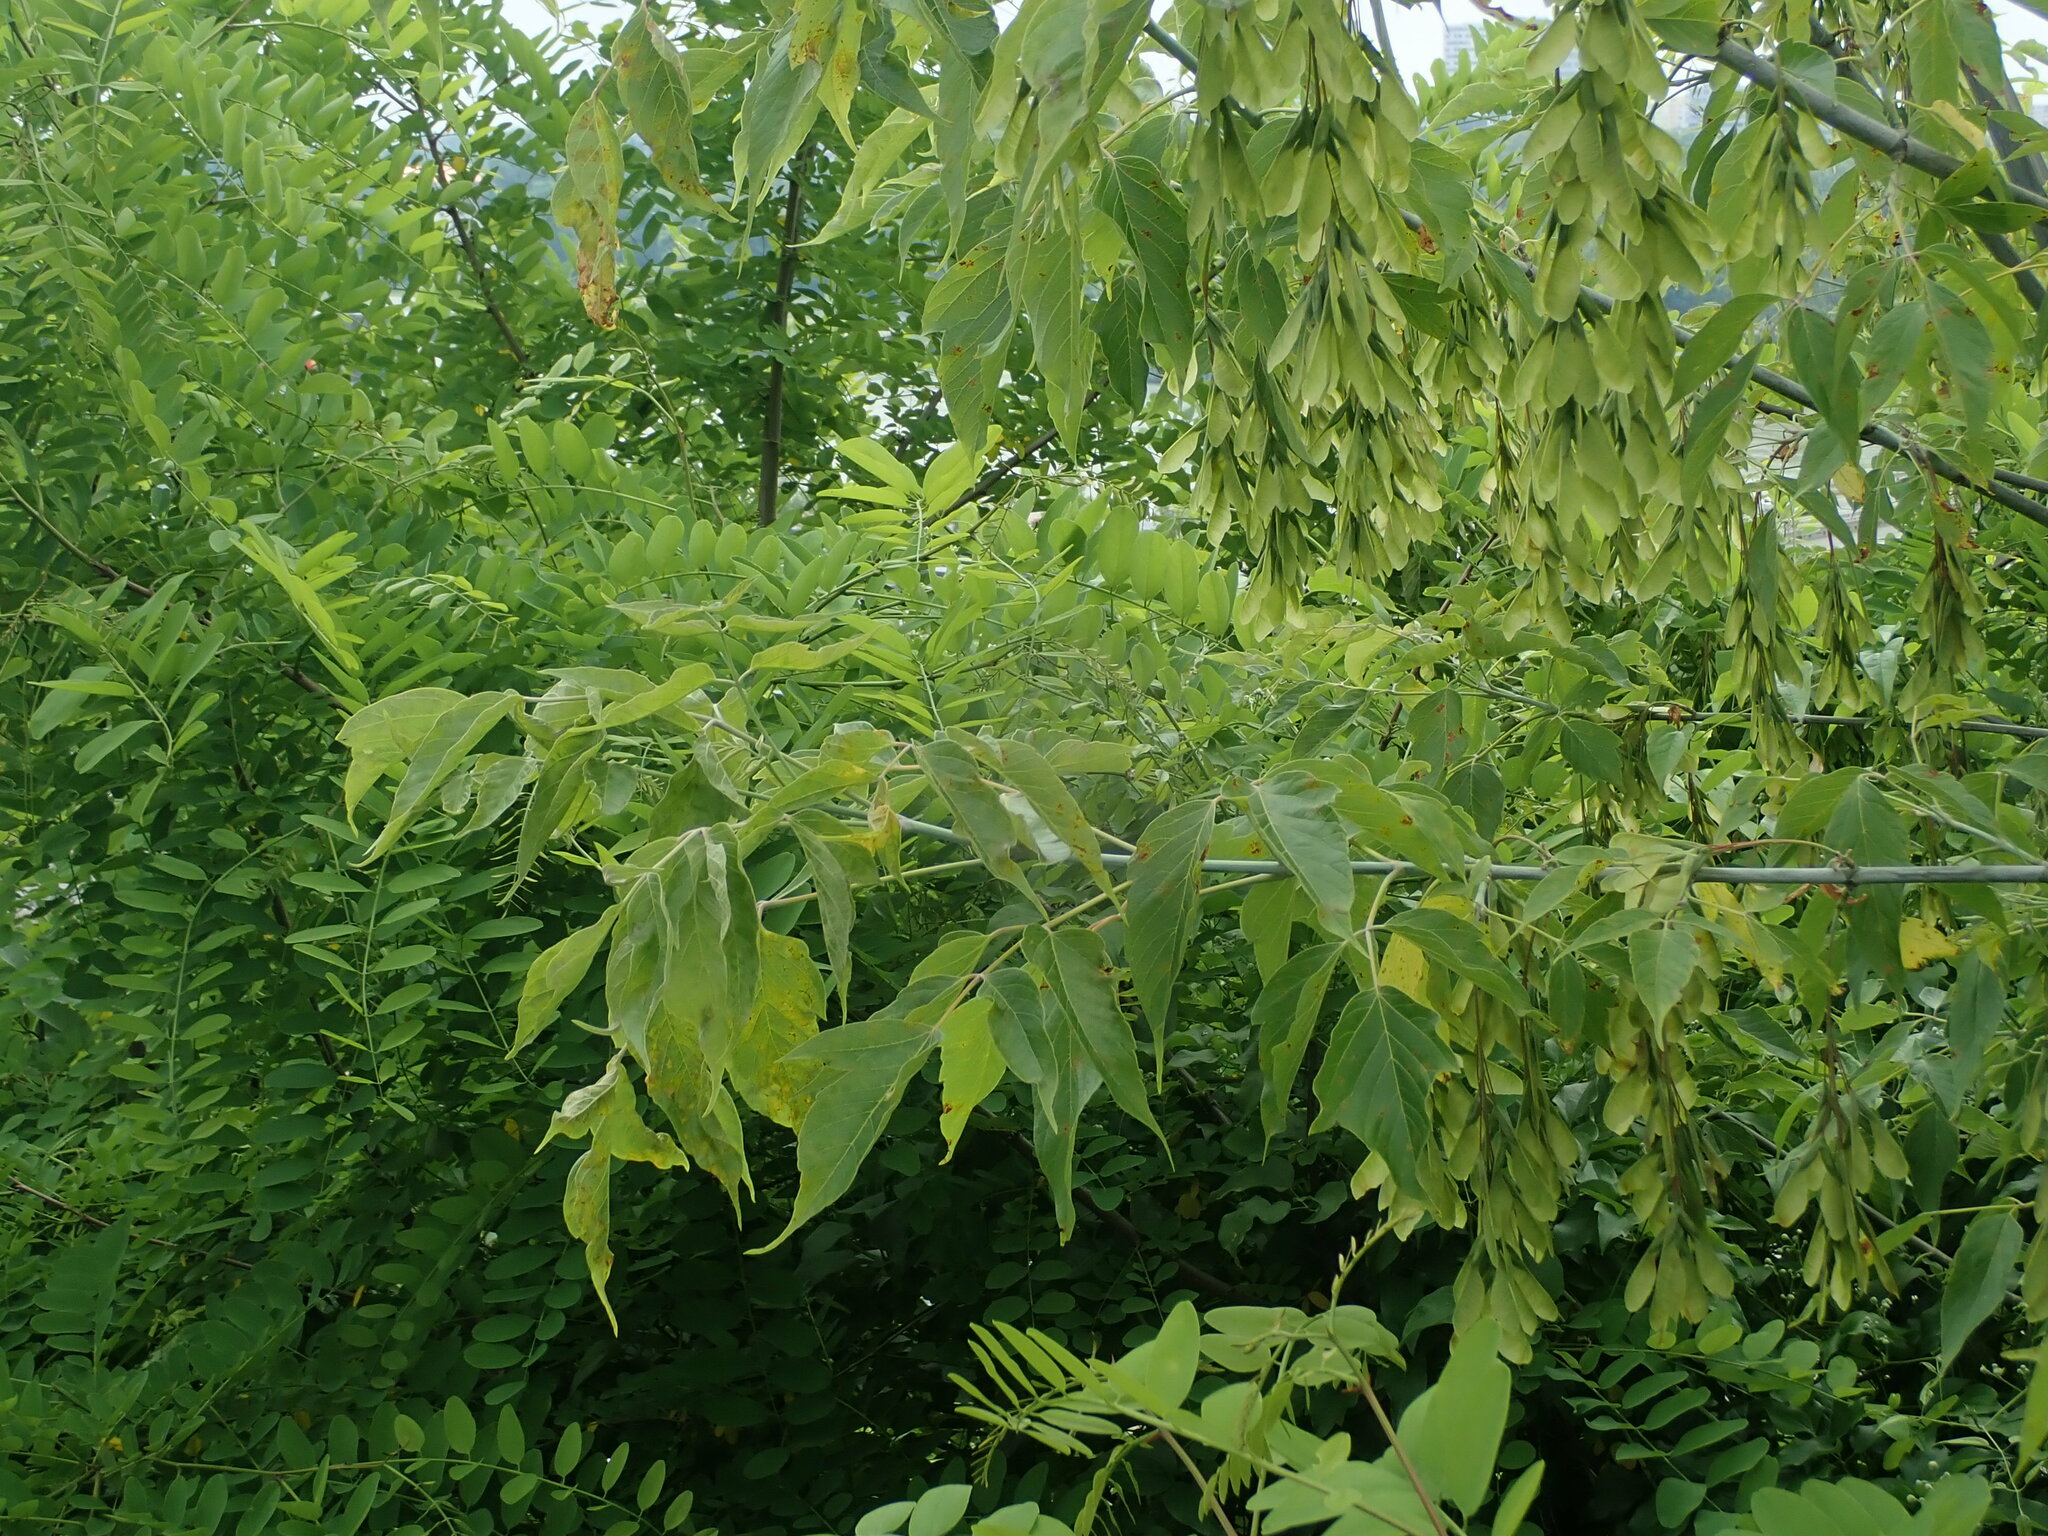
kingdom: Plantae
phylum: Tracheophyta
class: Magnoliopsida
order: Sapindales
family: Sapindaceae
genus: Acer
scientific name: Acer negundo
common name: Ashleaf maple
